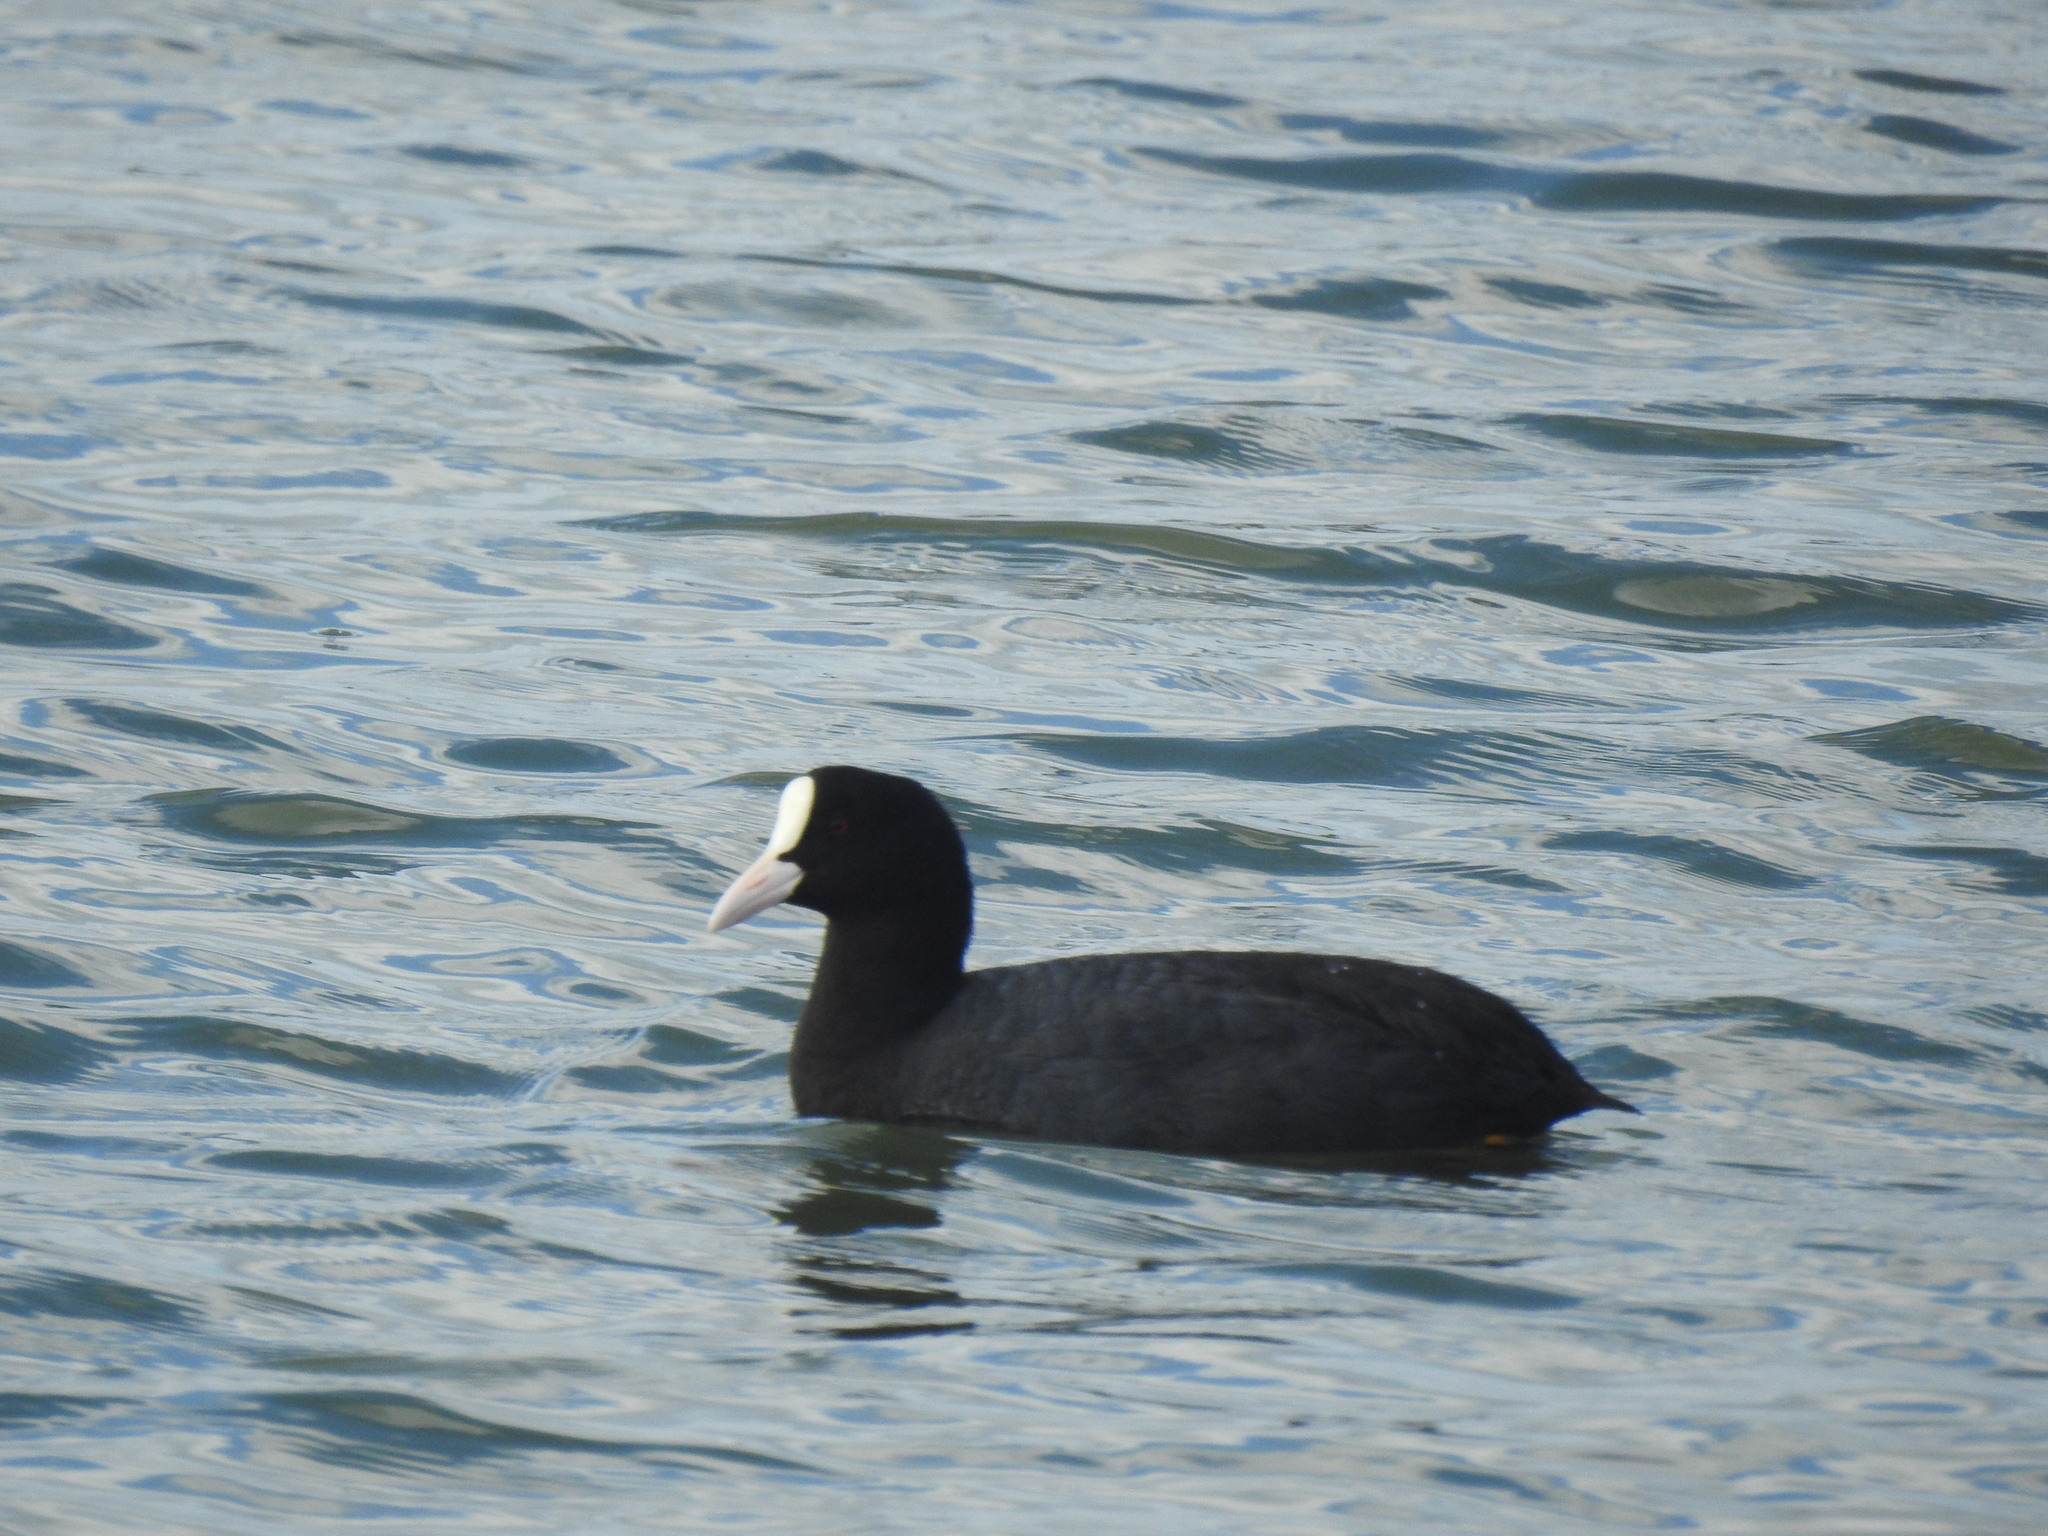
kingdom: Animalia
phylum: Chordata
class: Aves
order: Gruiformes
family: Rallidae
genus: Fulica
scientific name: Fulica atra
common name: Eurasian coot
